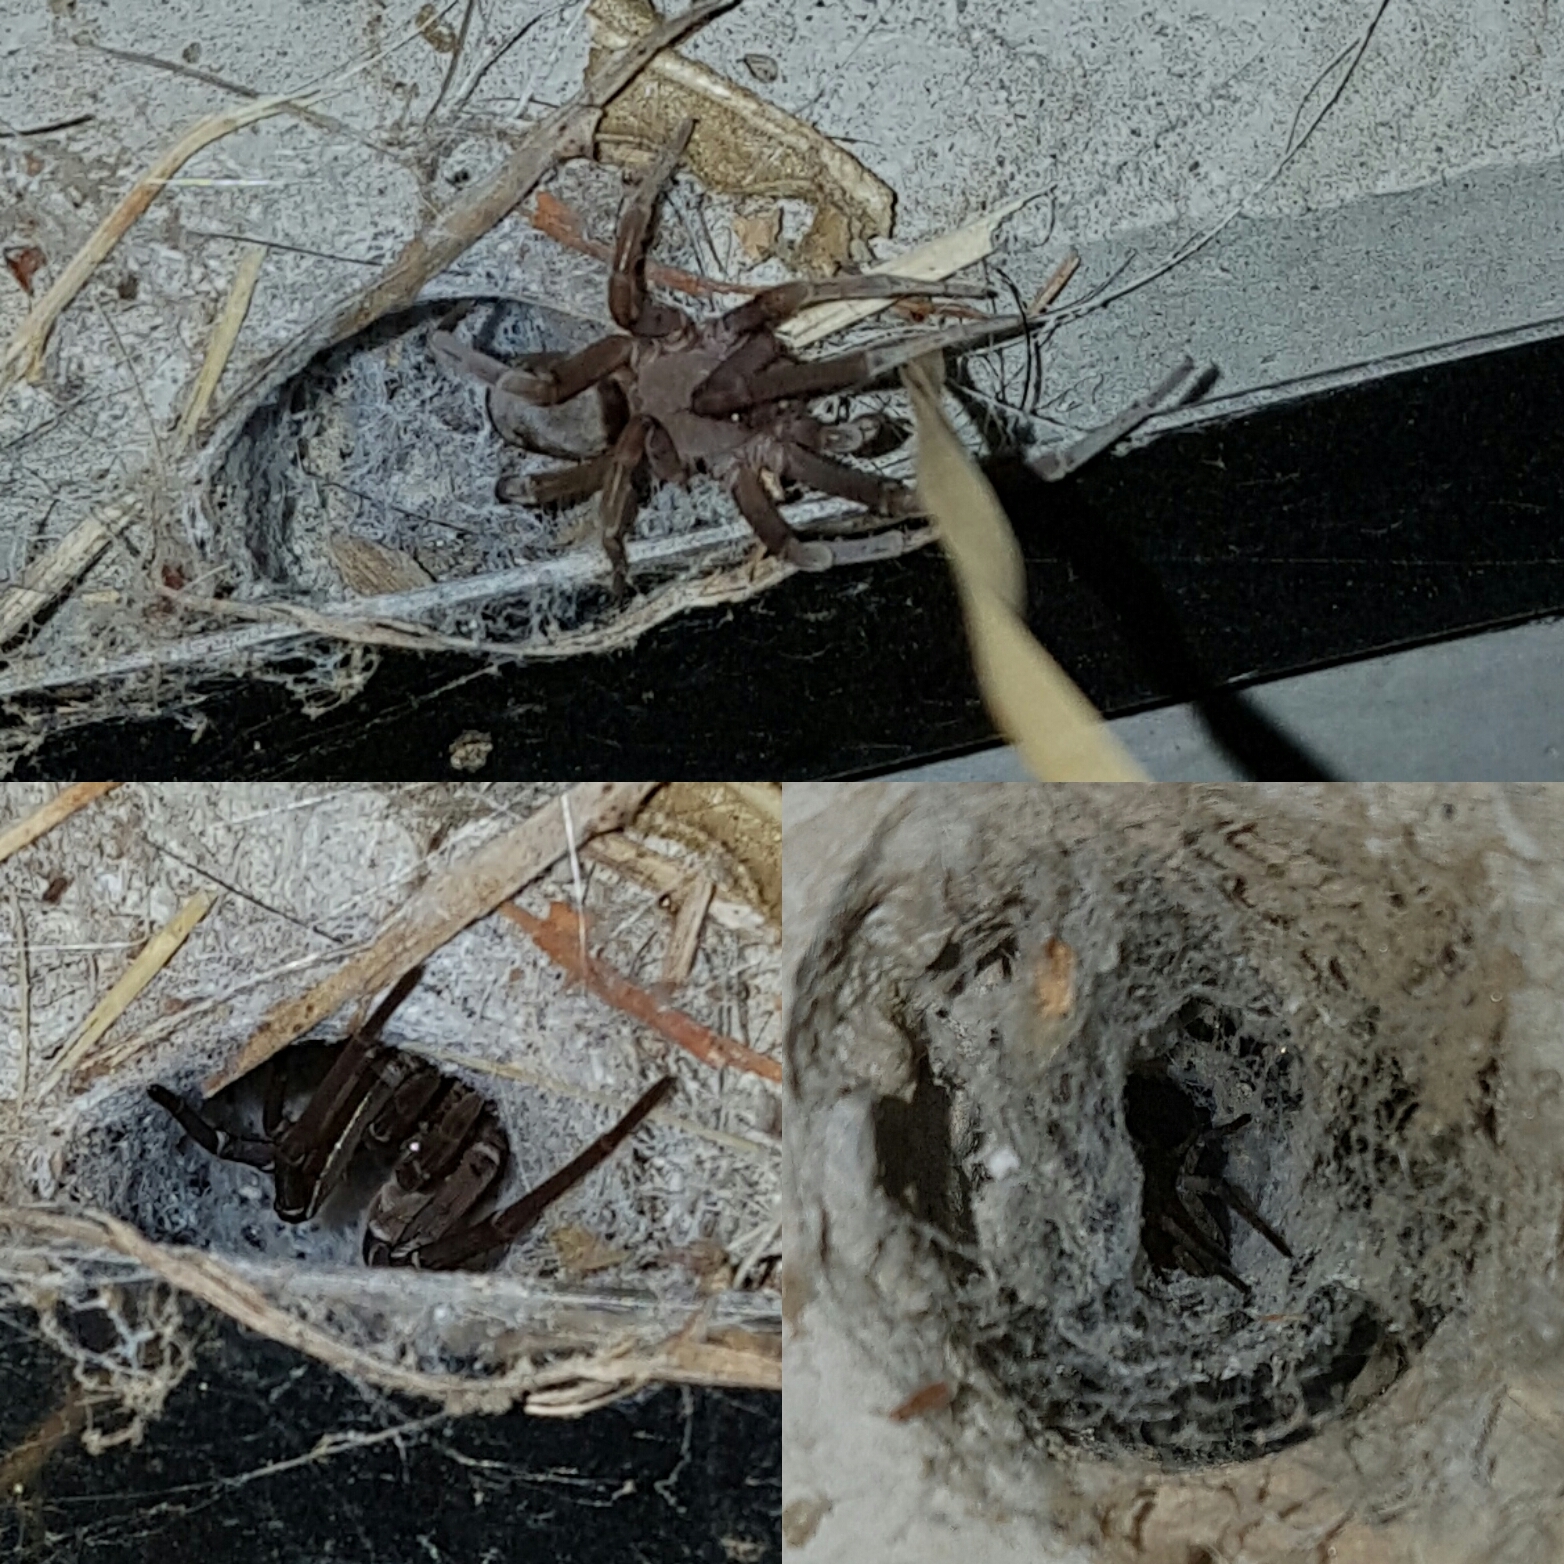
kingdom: Animalia
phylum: Arthropoda
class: Arachnida
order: Araneae
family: Filistatidae
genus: Filistata
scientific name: Filistata insidiatrix
